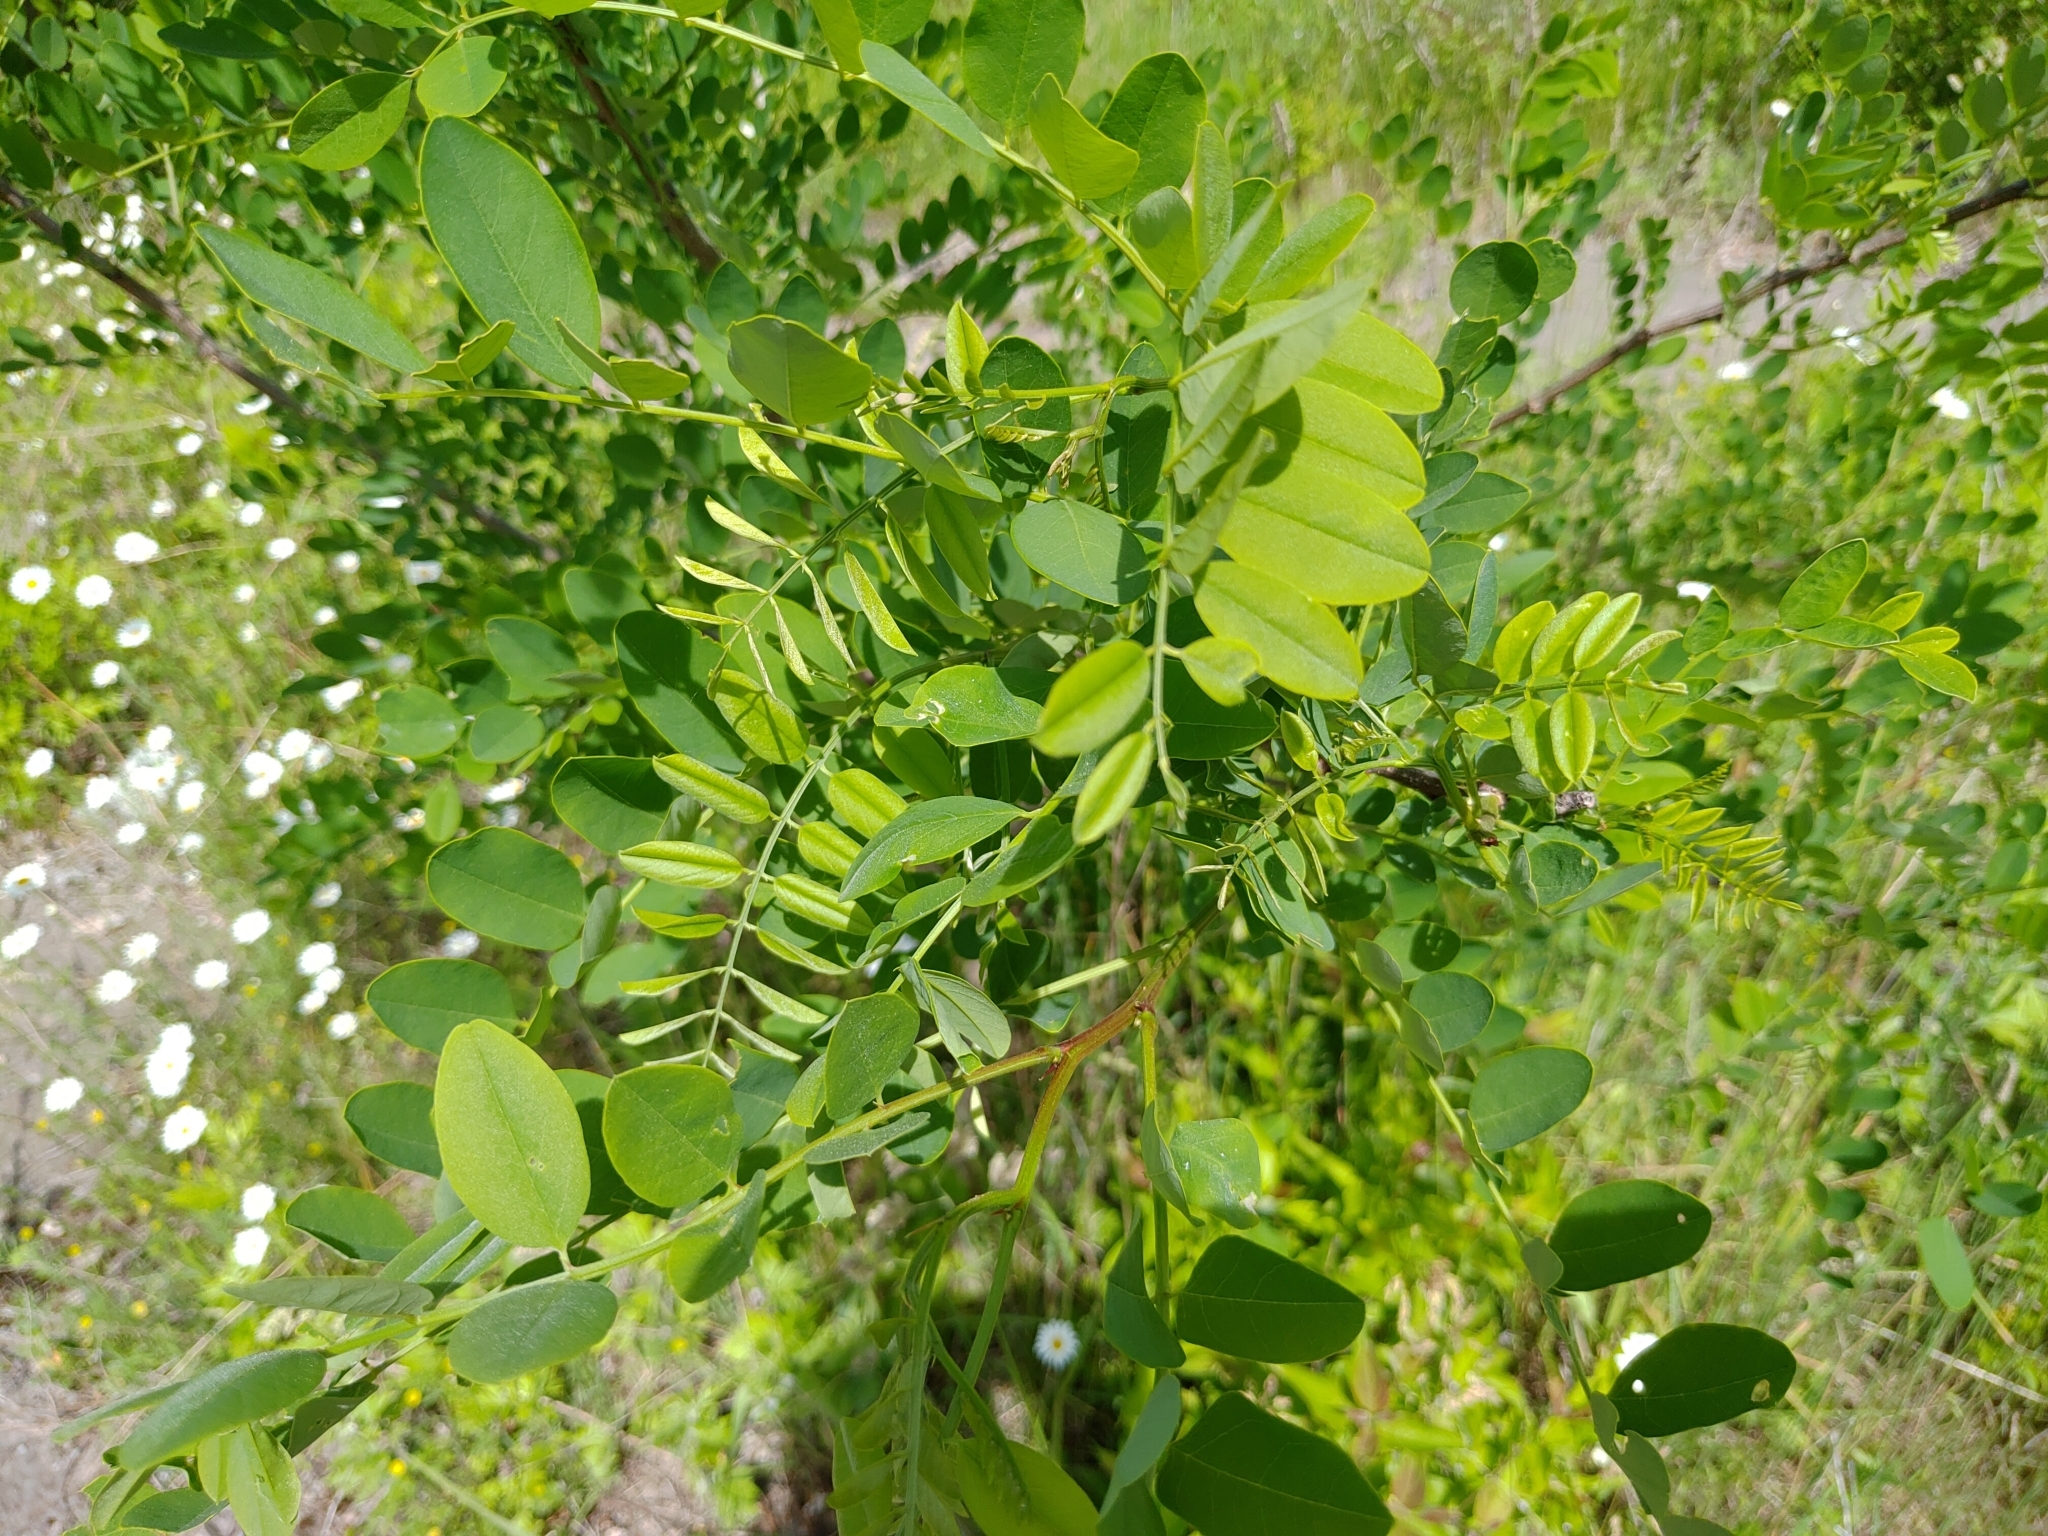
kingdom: Plantae
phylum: Tracheophyta
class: Magnoliopsida
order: Fabales
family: Fabaceae
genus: Robinia
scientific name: Robinia pseudoacacia
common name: Black locust
